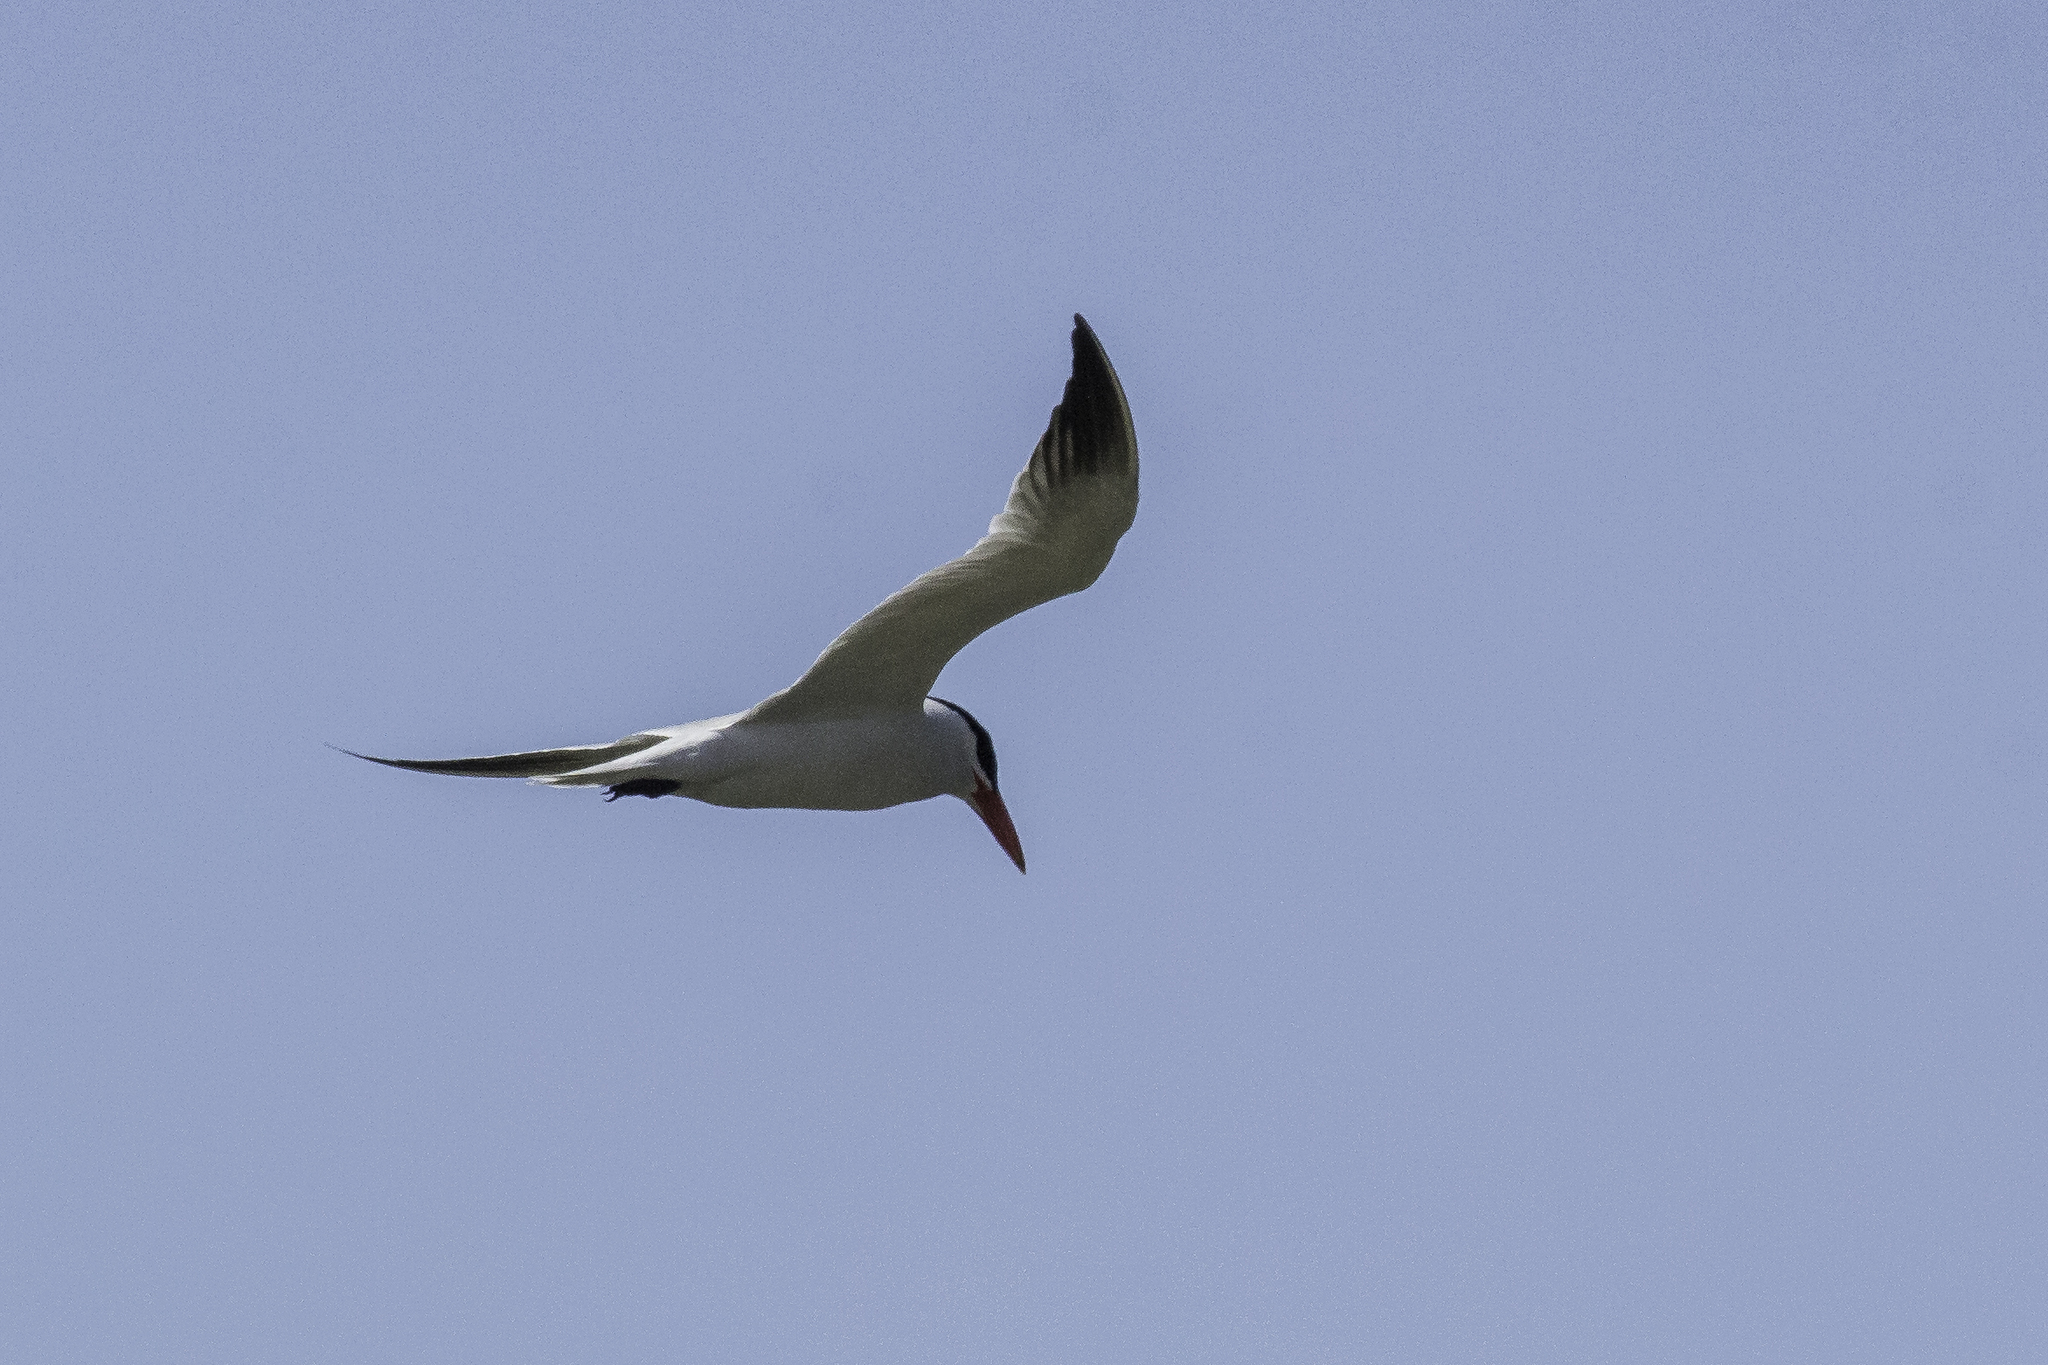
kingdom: Animalia
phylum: Chordata
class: Aves
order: Charadriiformes
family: Laridae
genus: Hydroprogne
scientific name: Hydroprogne caspia
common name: Caspian tern
